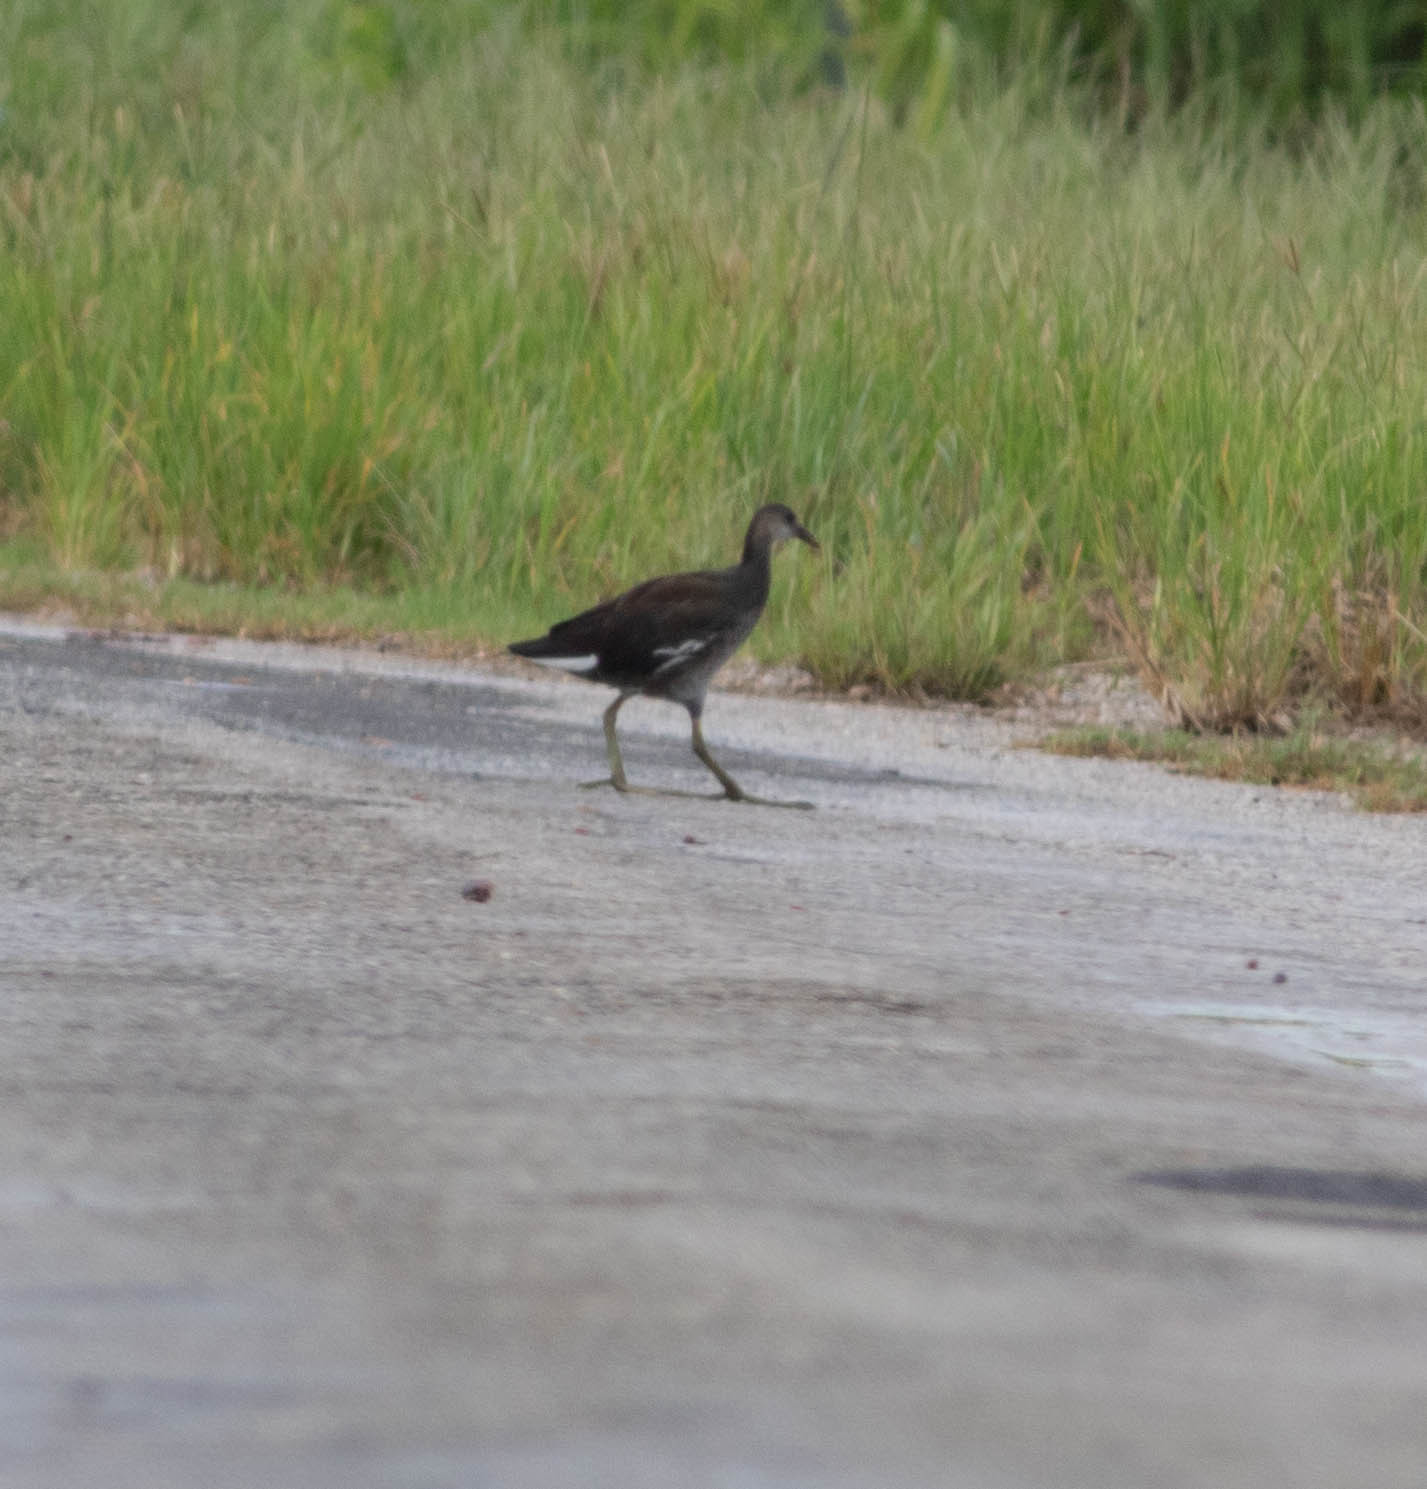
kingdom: Animalia
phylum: Chordata
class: Aves
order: Gruiformes
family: Rallidae
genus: Gallinula
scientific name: Gallinula chloropus
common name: Common moorhen
